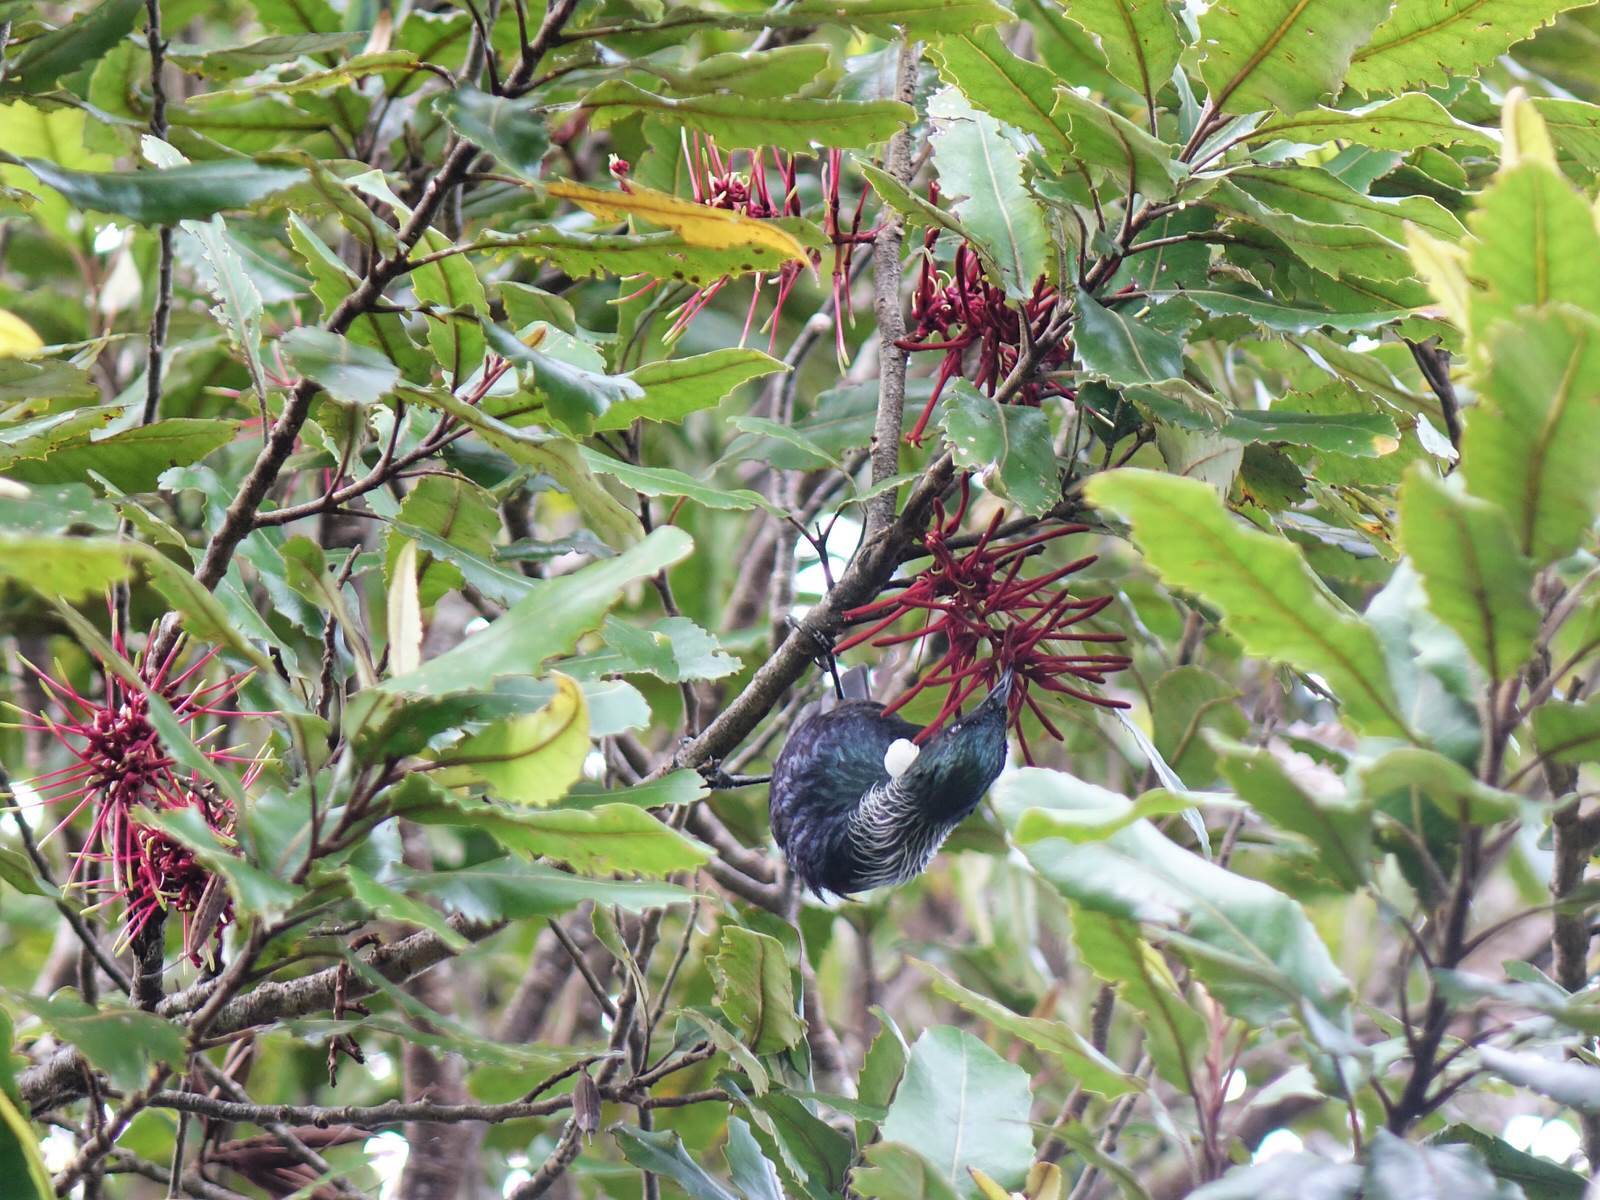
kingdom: Animalia
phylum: Chordata
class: Aves
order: Passeriformes
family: Meliphagidae
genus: Prosthemadera
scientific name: Prosthemadera novaeseelandiae
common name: Tui
